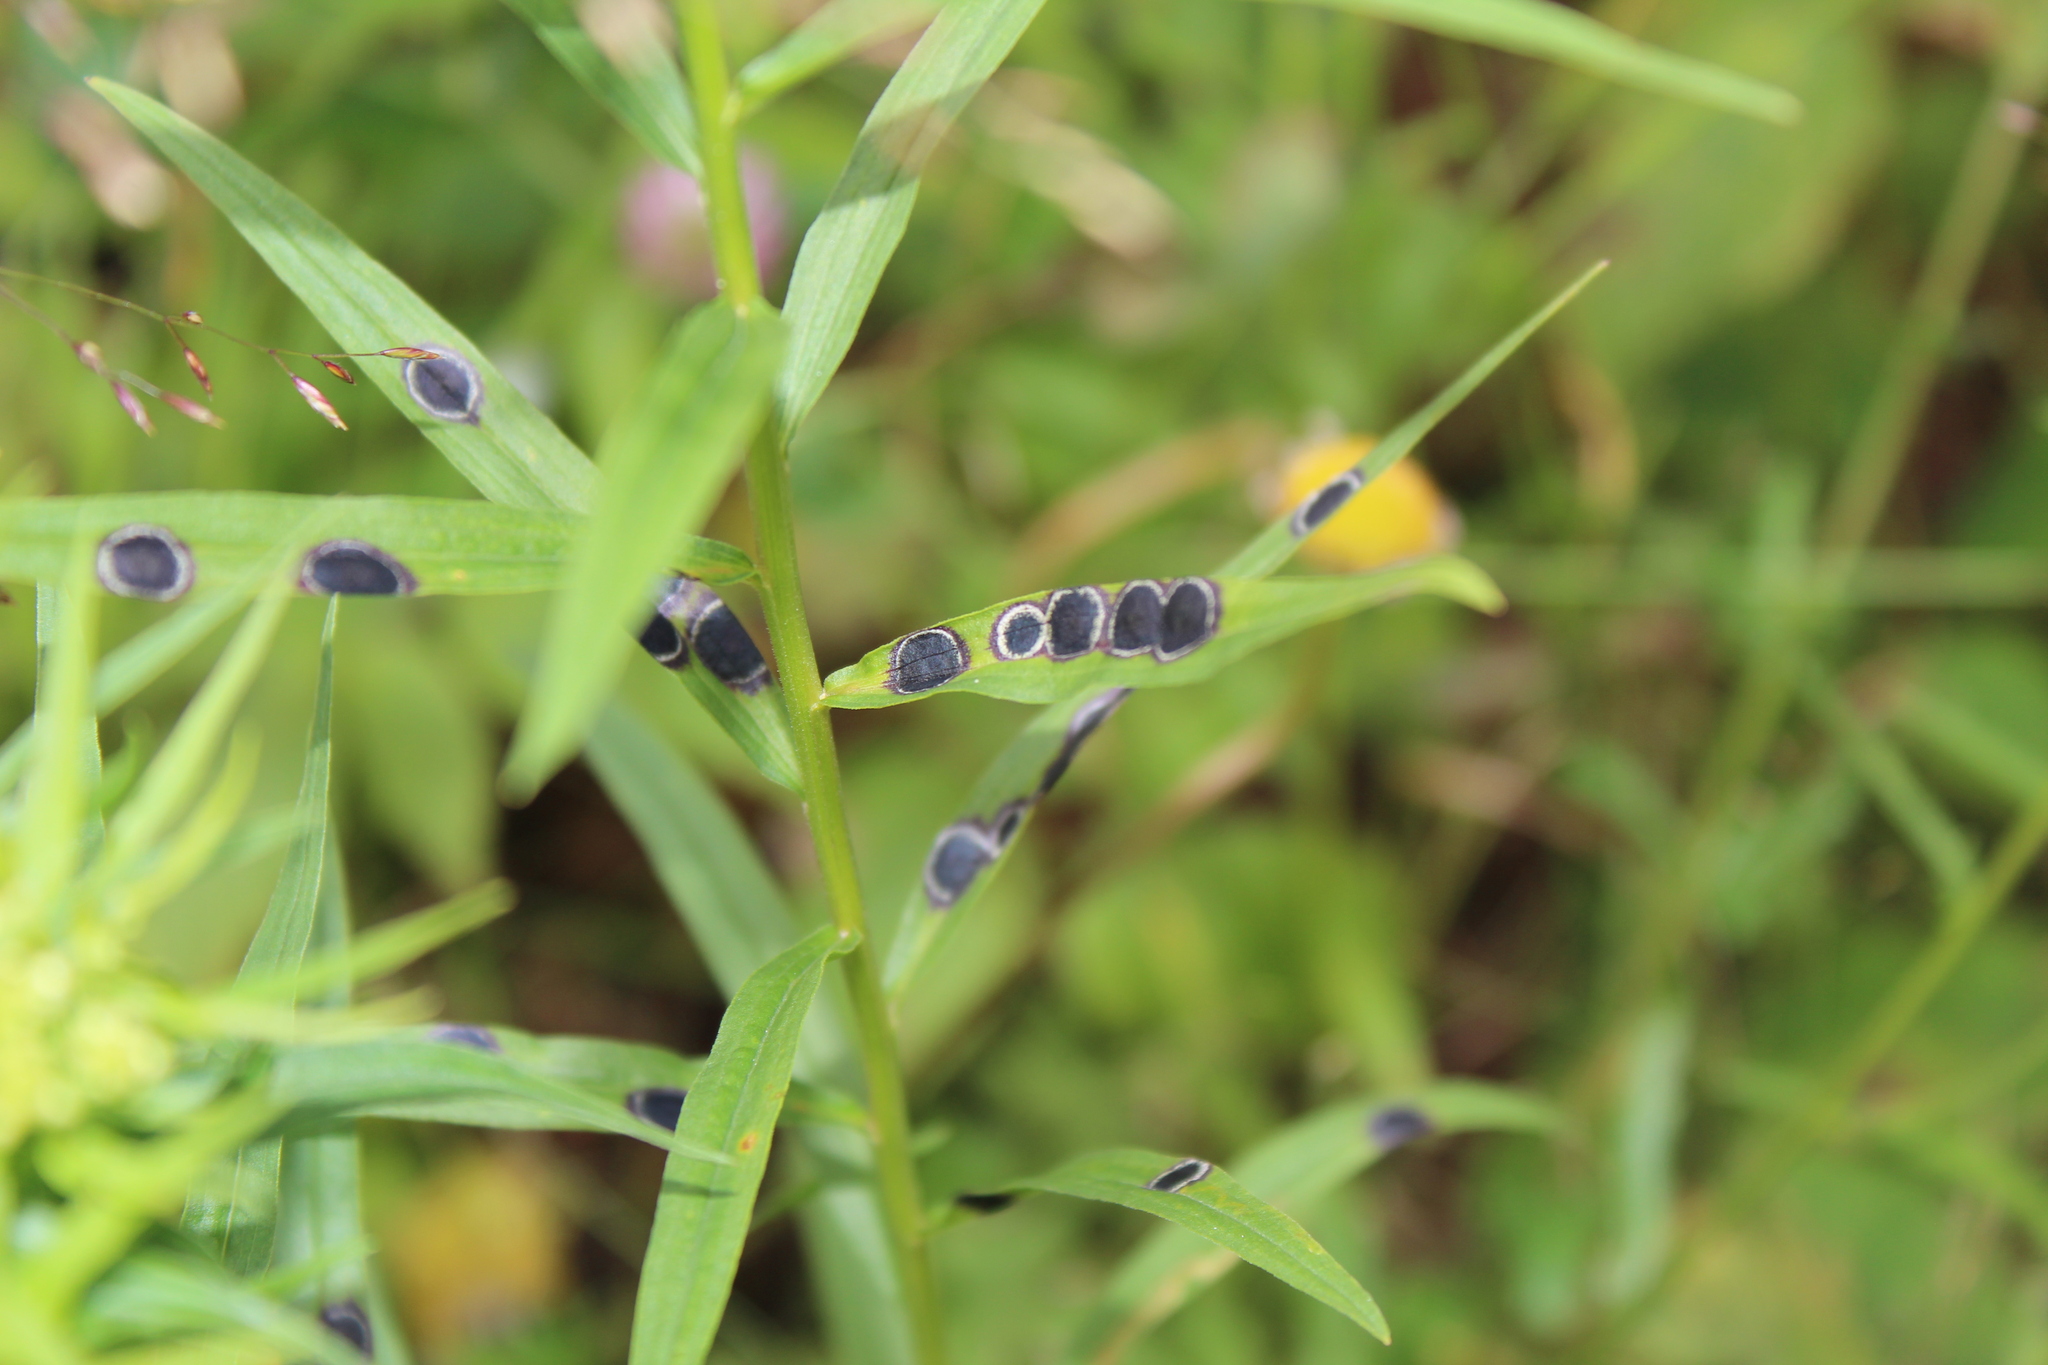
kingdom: Animalia
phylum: Arthropoda
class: Insecta
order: Diptera
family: Cecidomyiidae
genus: Asteromyia
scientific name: Asteromyia euthamiae
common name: Euthamia leaf gall midge
